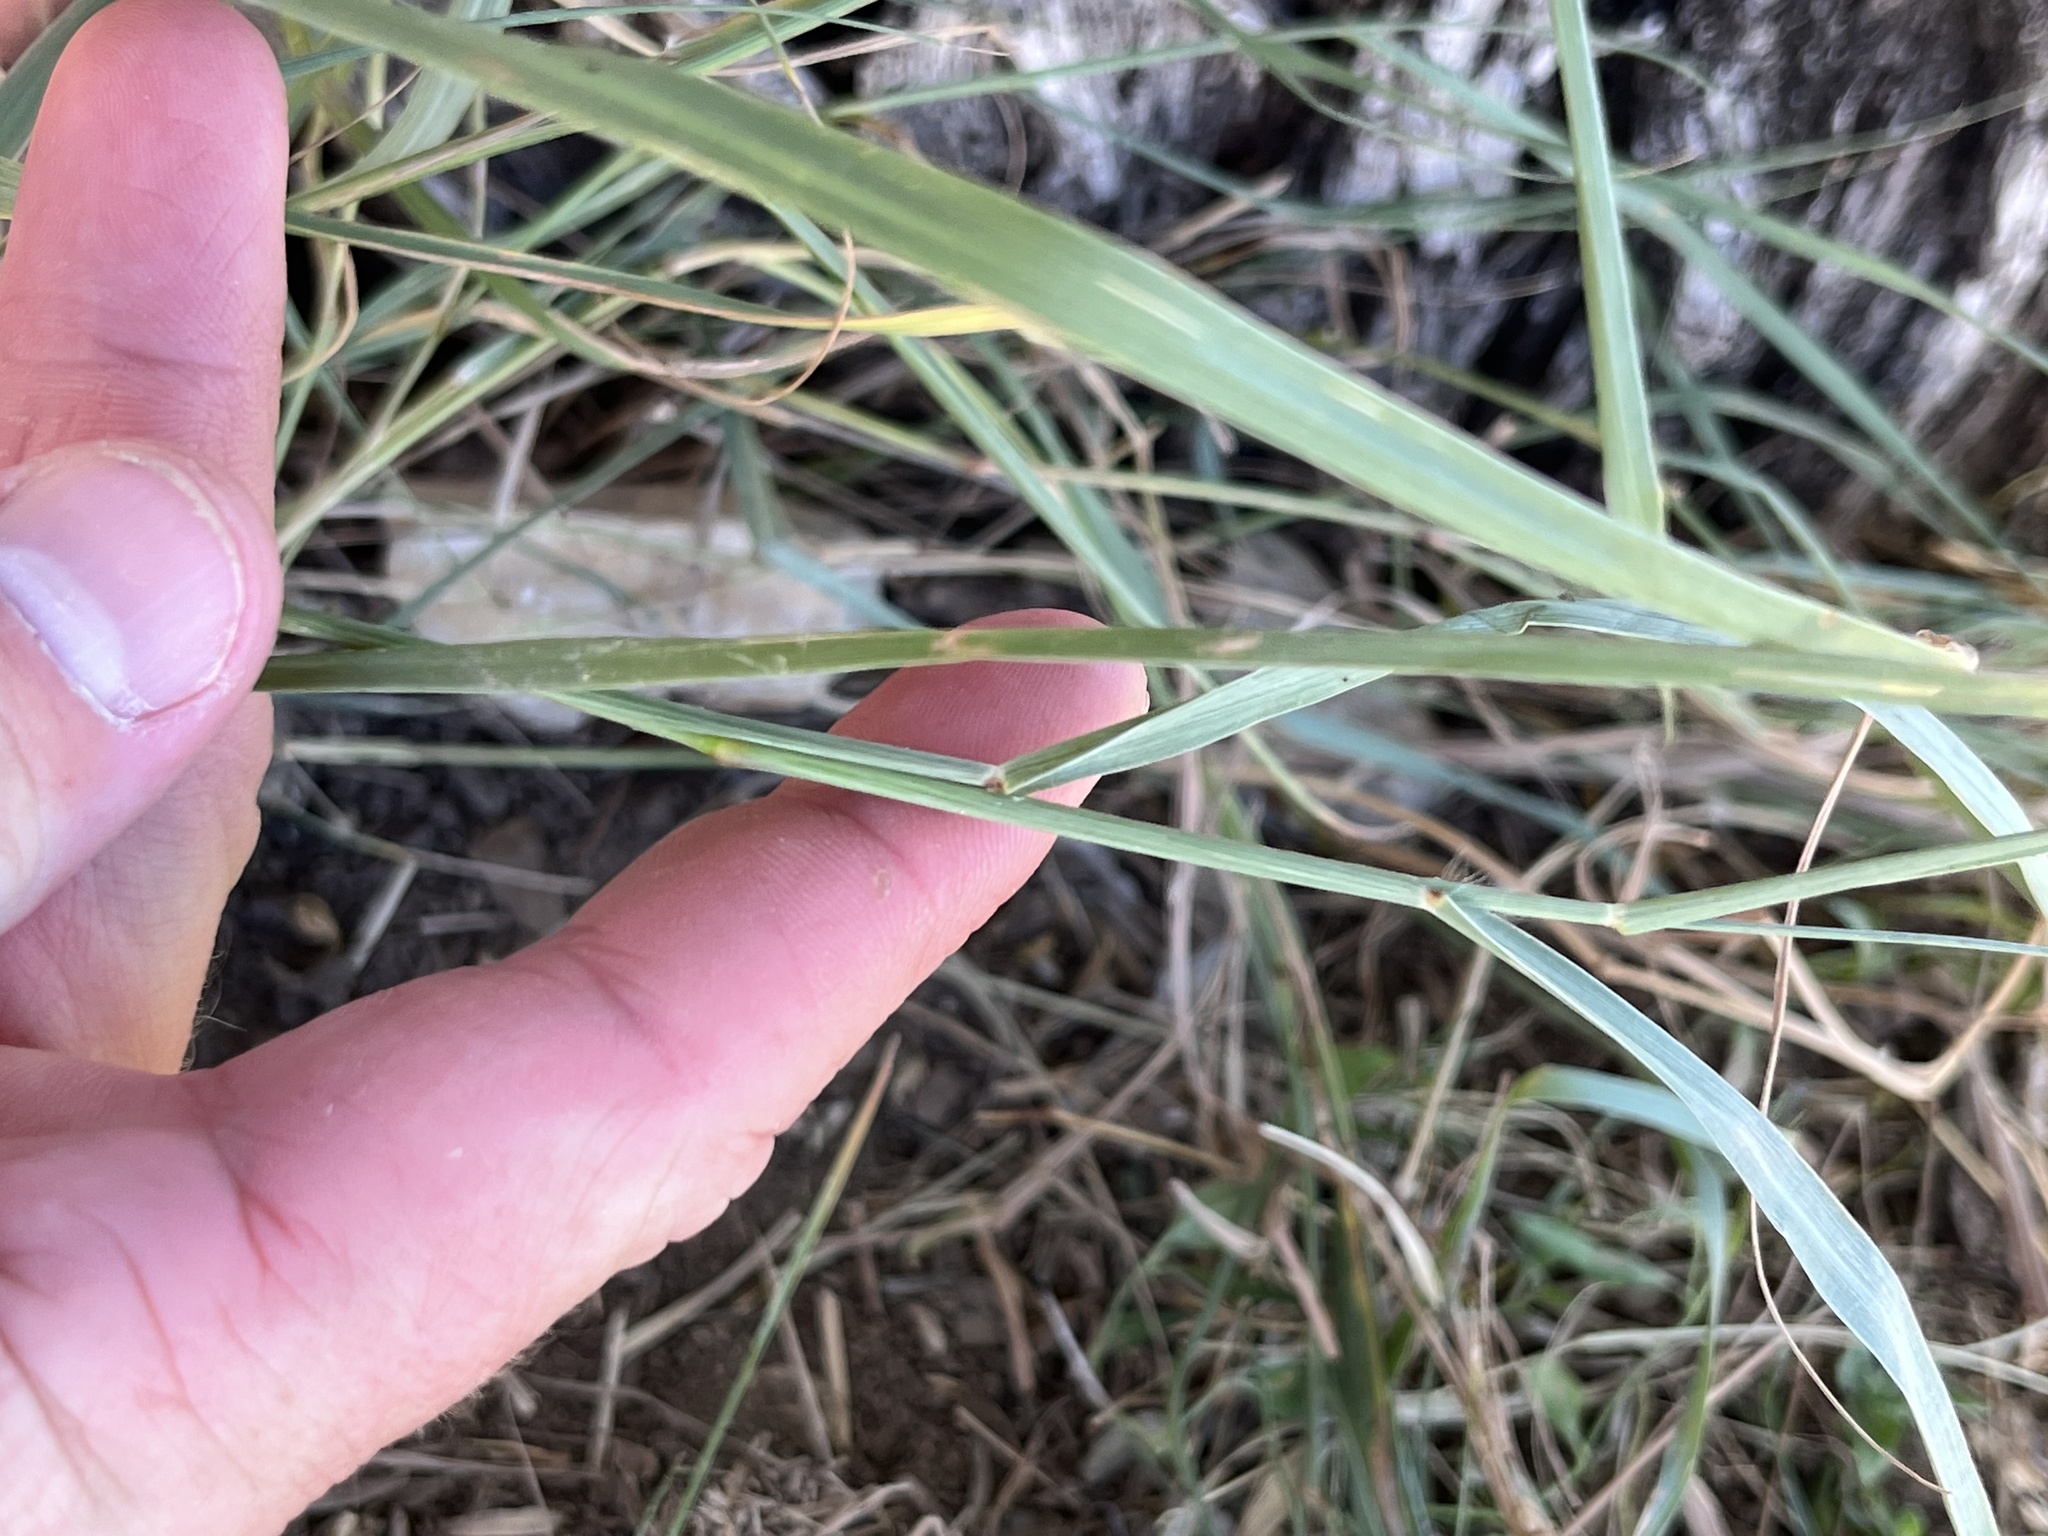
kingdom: Plantae
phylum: Tracheophyta
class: Liliopsida
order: Poales
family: Poaceae
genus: Hopia
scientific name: Hopia obtusa
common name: Vine-mesquite
